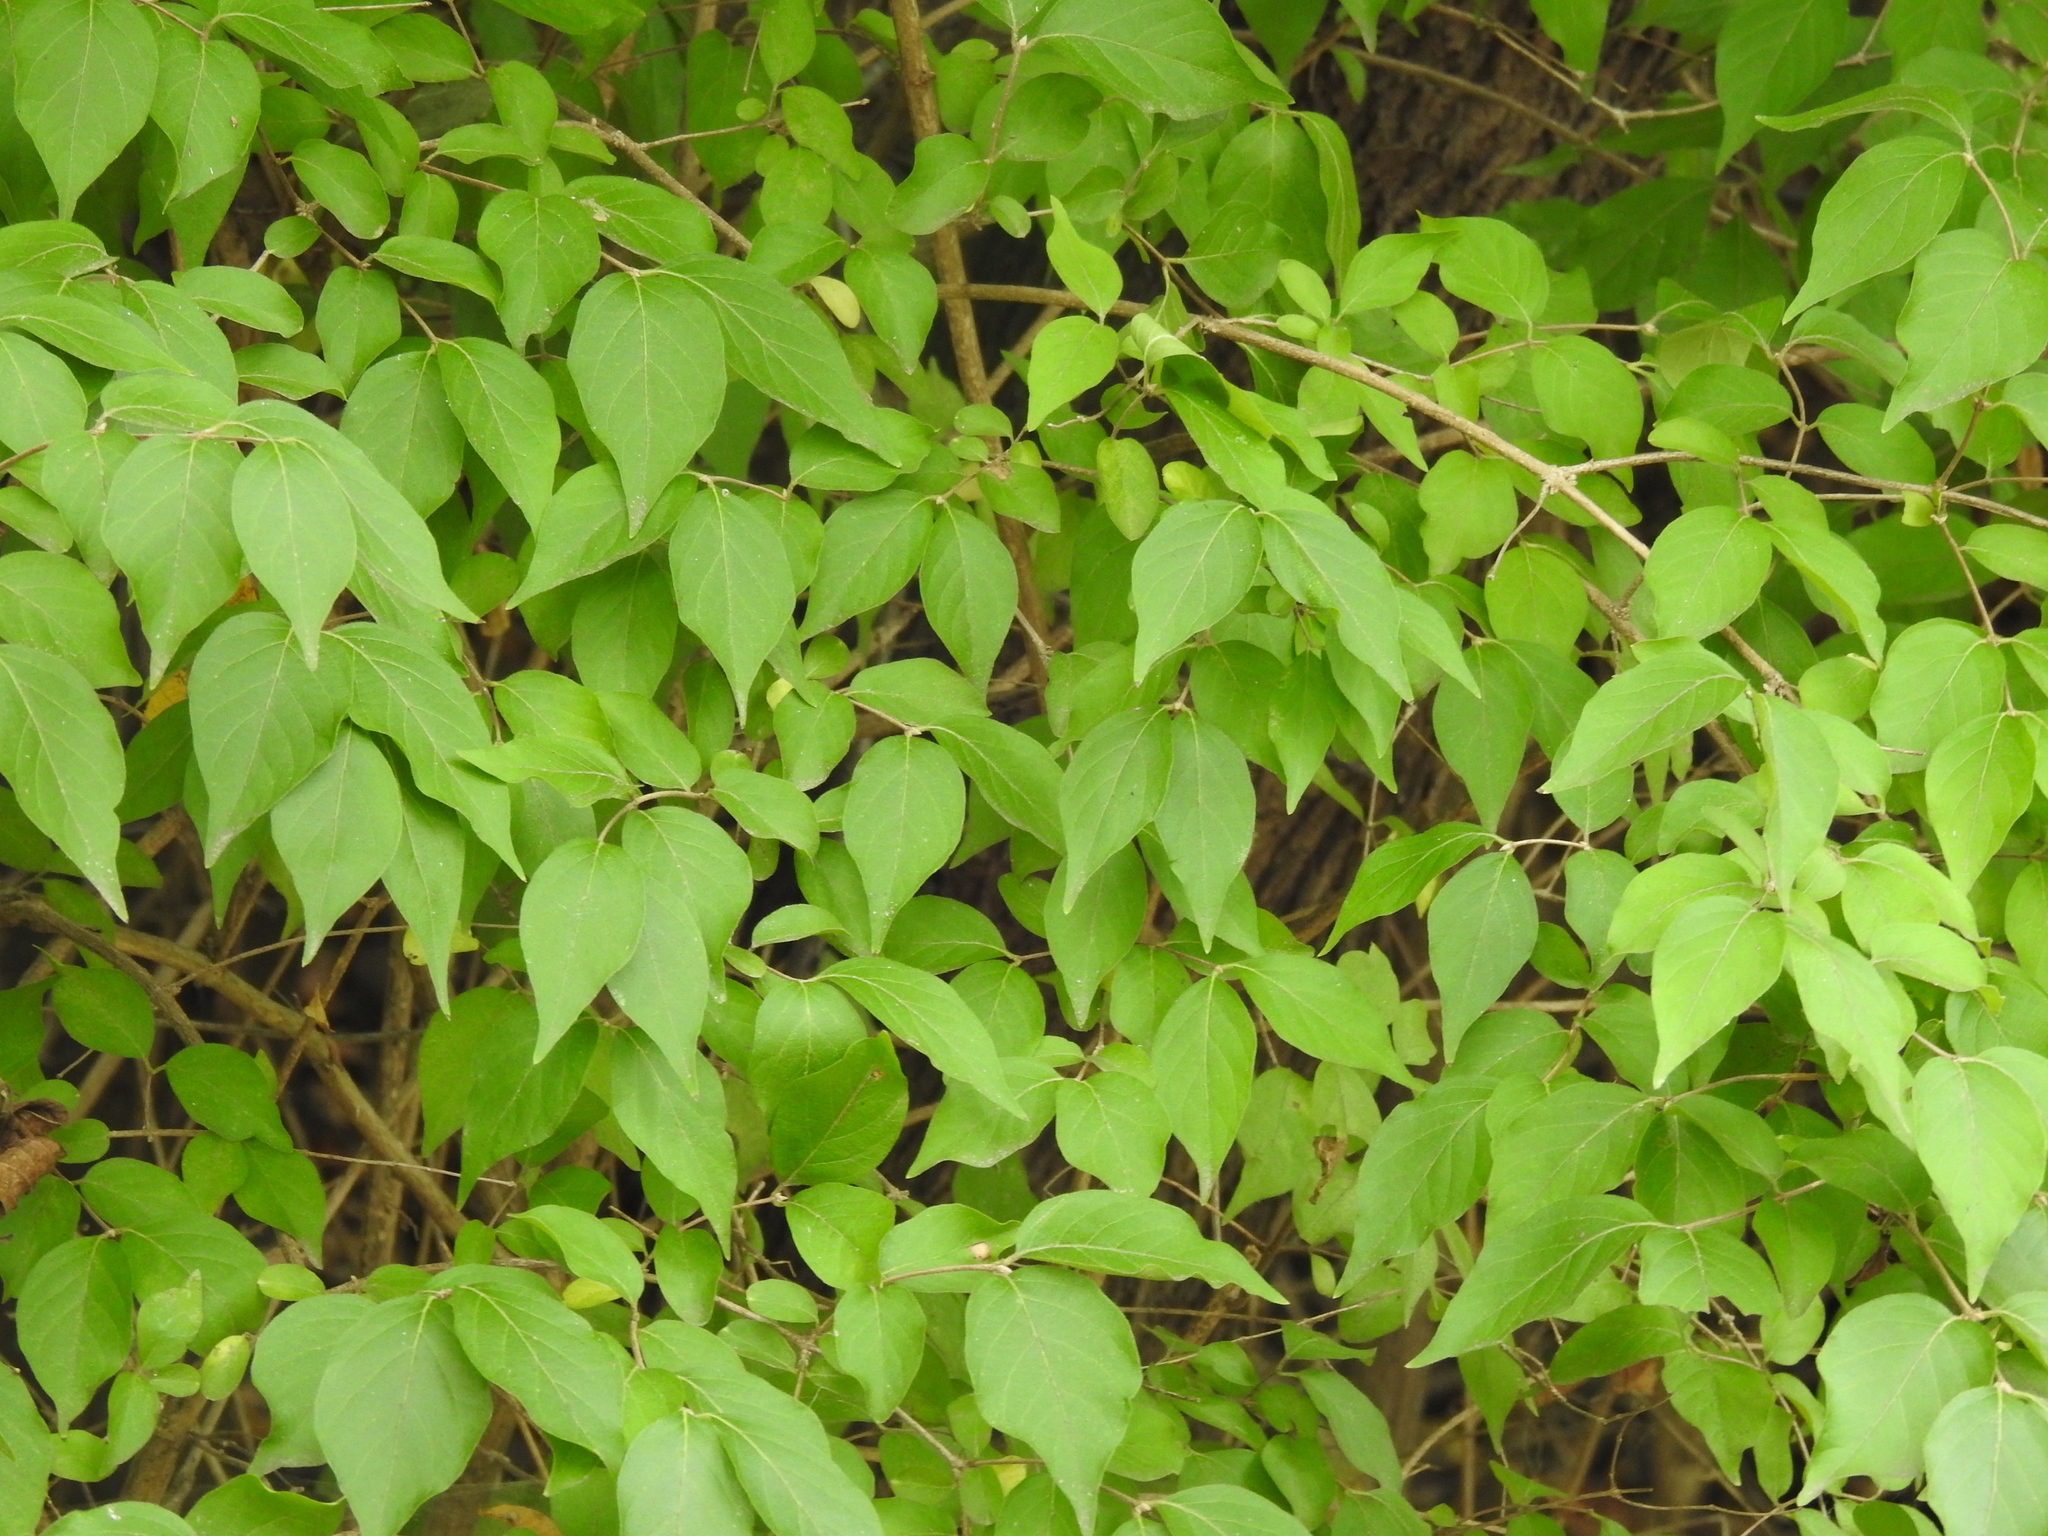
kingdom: Plantae
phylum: Tracheophyta
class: Magnoliopsida
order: Dipsacales
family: Caprifoliaceae
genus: Lonicera
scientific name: Lonicera maackii
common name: Amur honeysuckle
